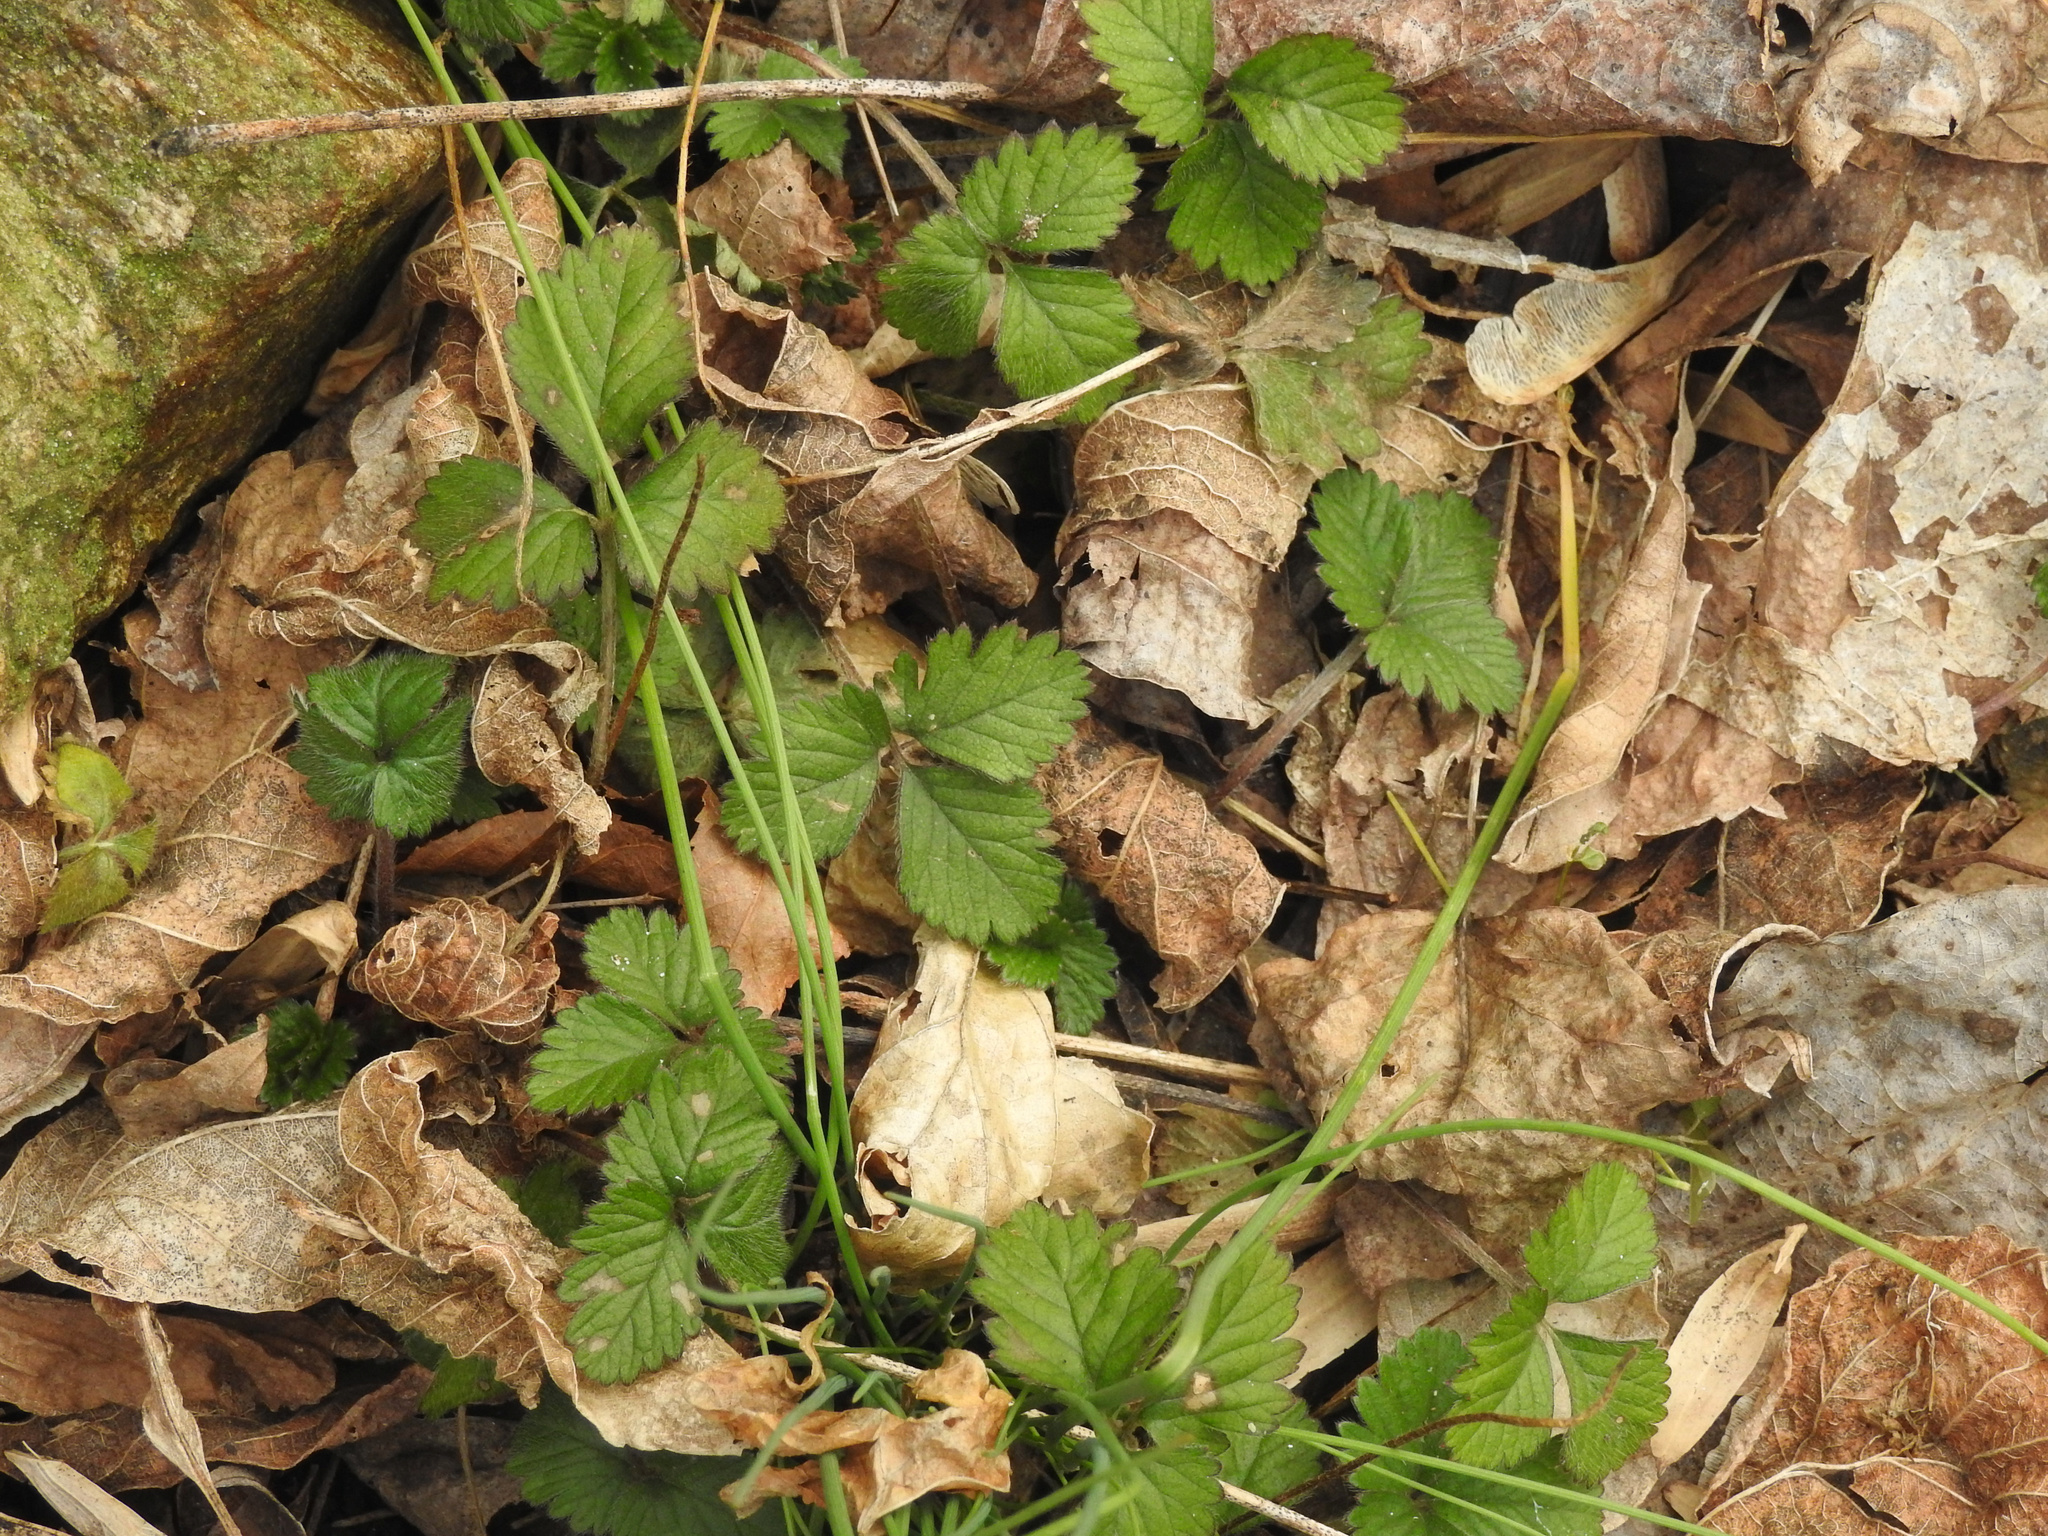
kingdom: Plantae
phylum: Tracheophyta
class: Magnoliopsida
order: Rosales
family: Rosaceae
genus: Potentilla
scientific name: Potentilla indica
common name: Yellow-flowered strawberry
